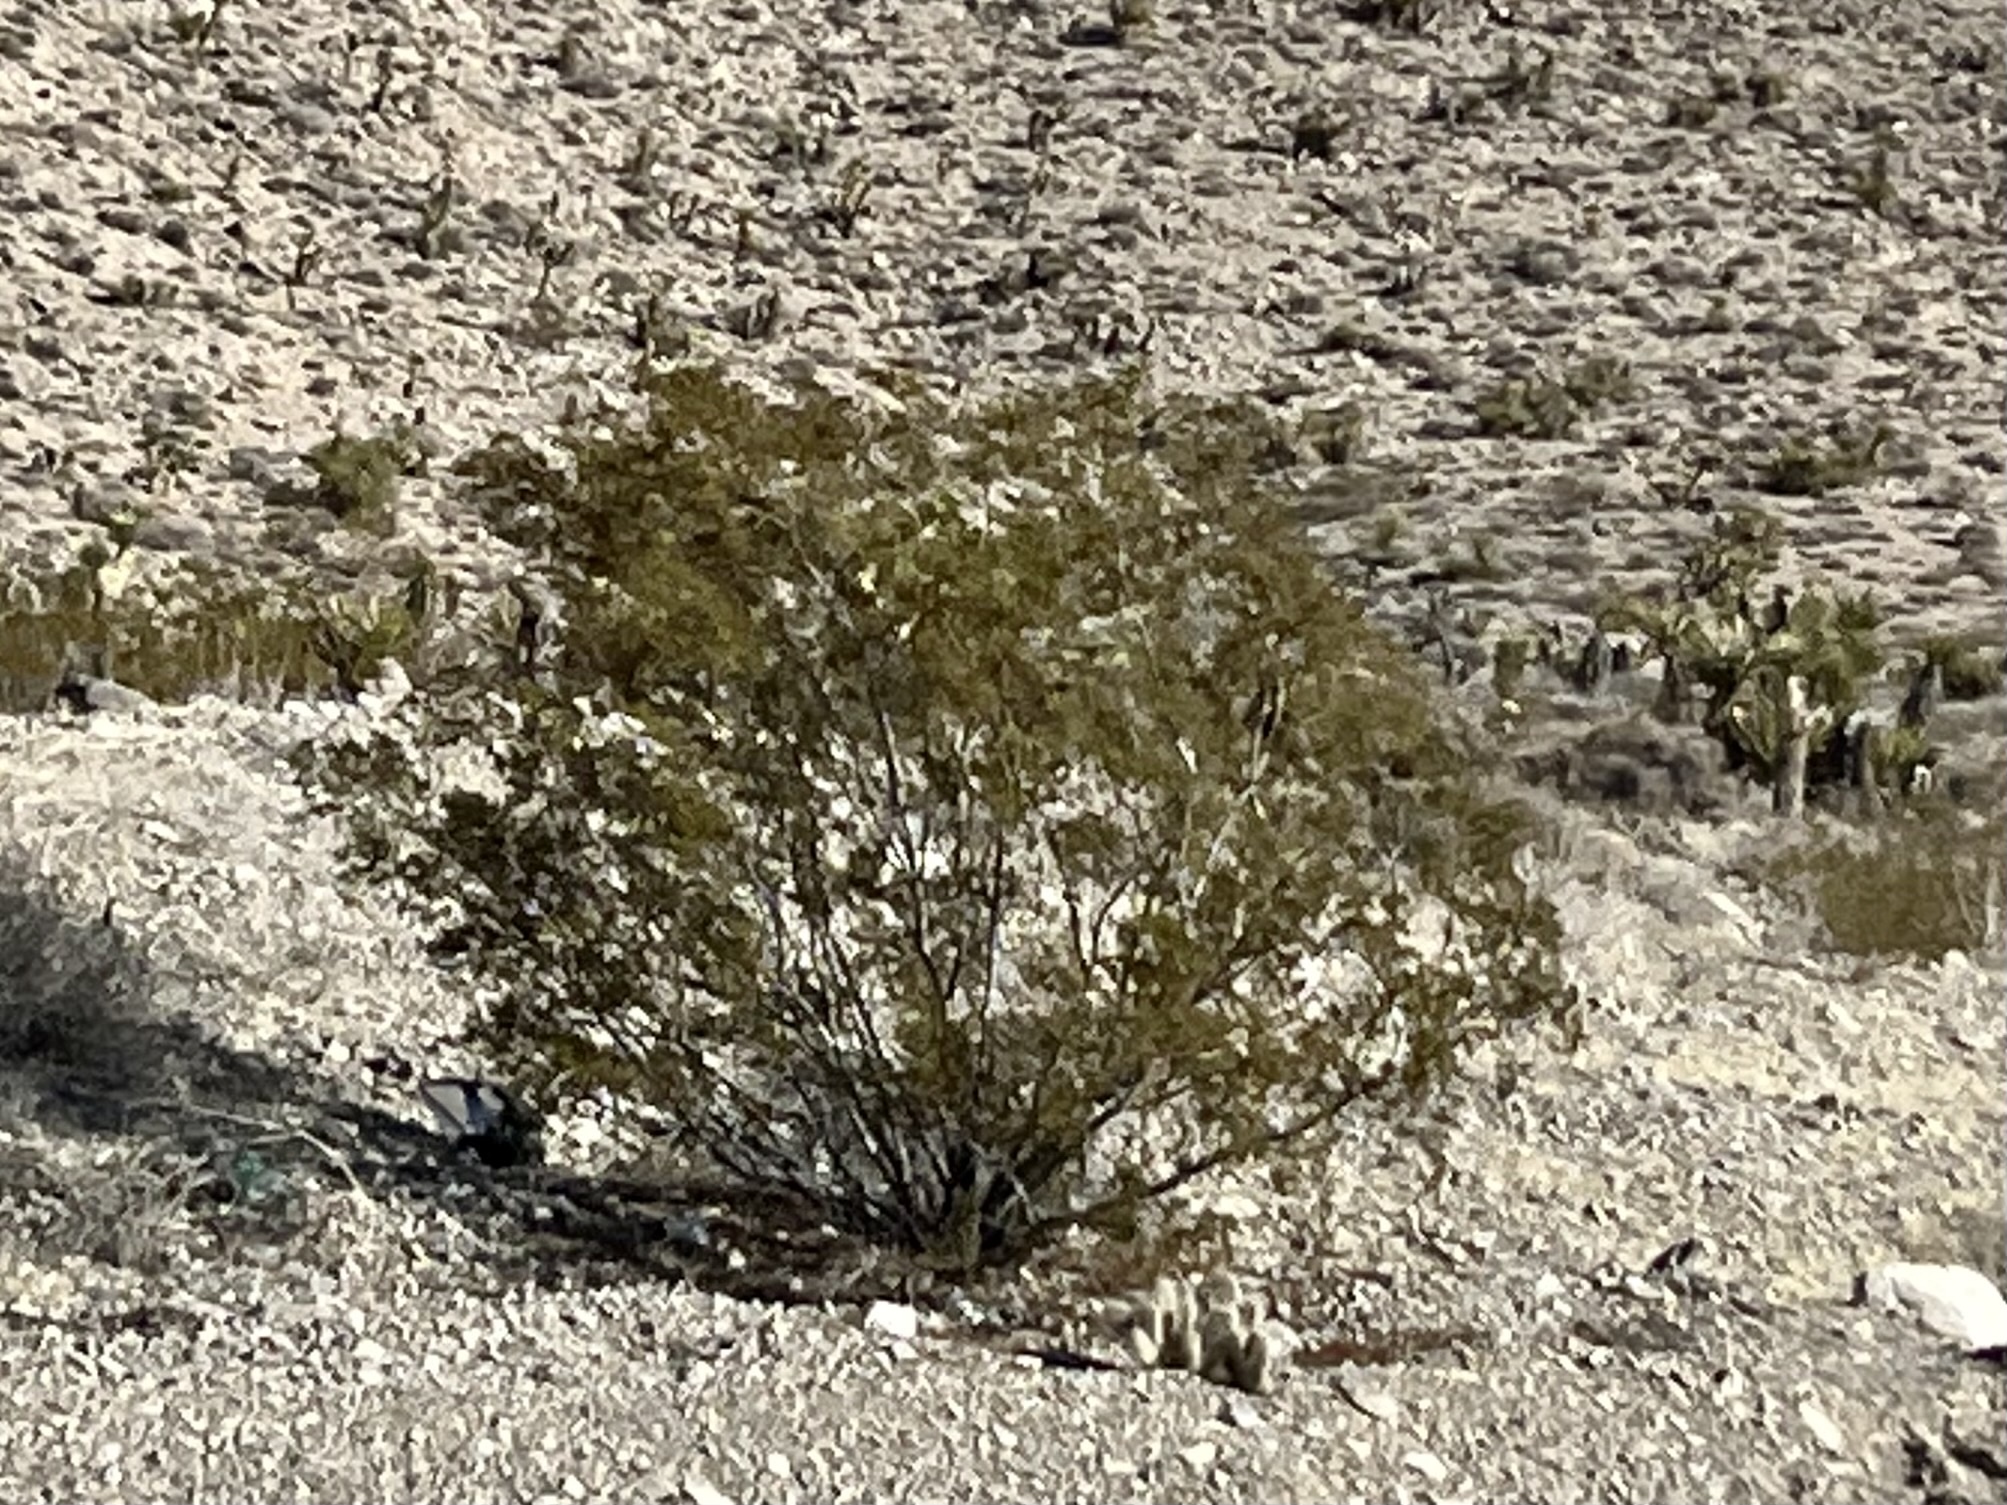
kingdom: Plantae
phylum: Tracheophyta
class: Magnoliopsida
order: Zygophyllales
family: Zygophyllaceae
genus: Larrea
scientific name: Larrea tridentata
